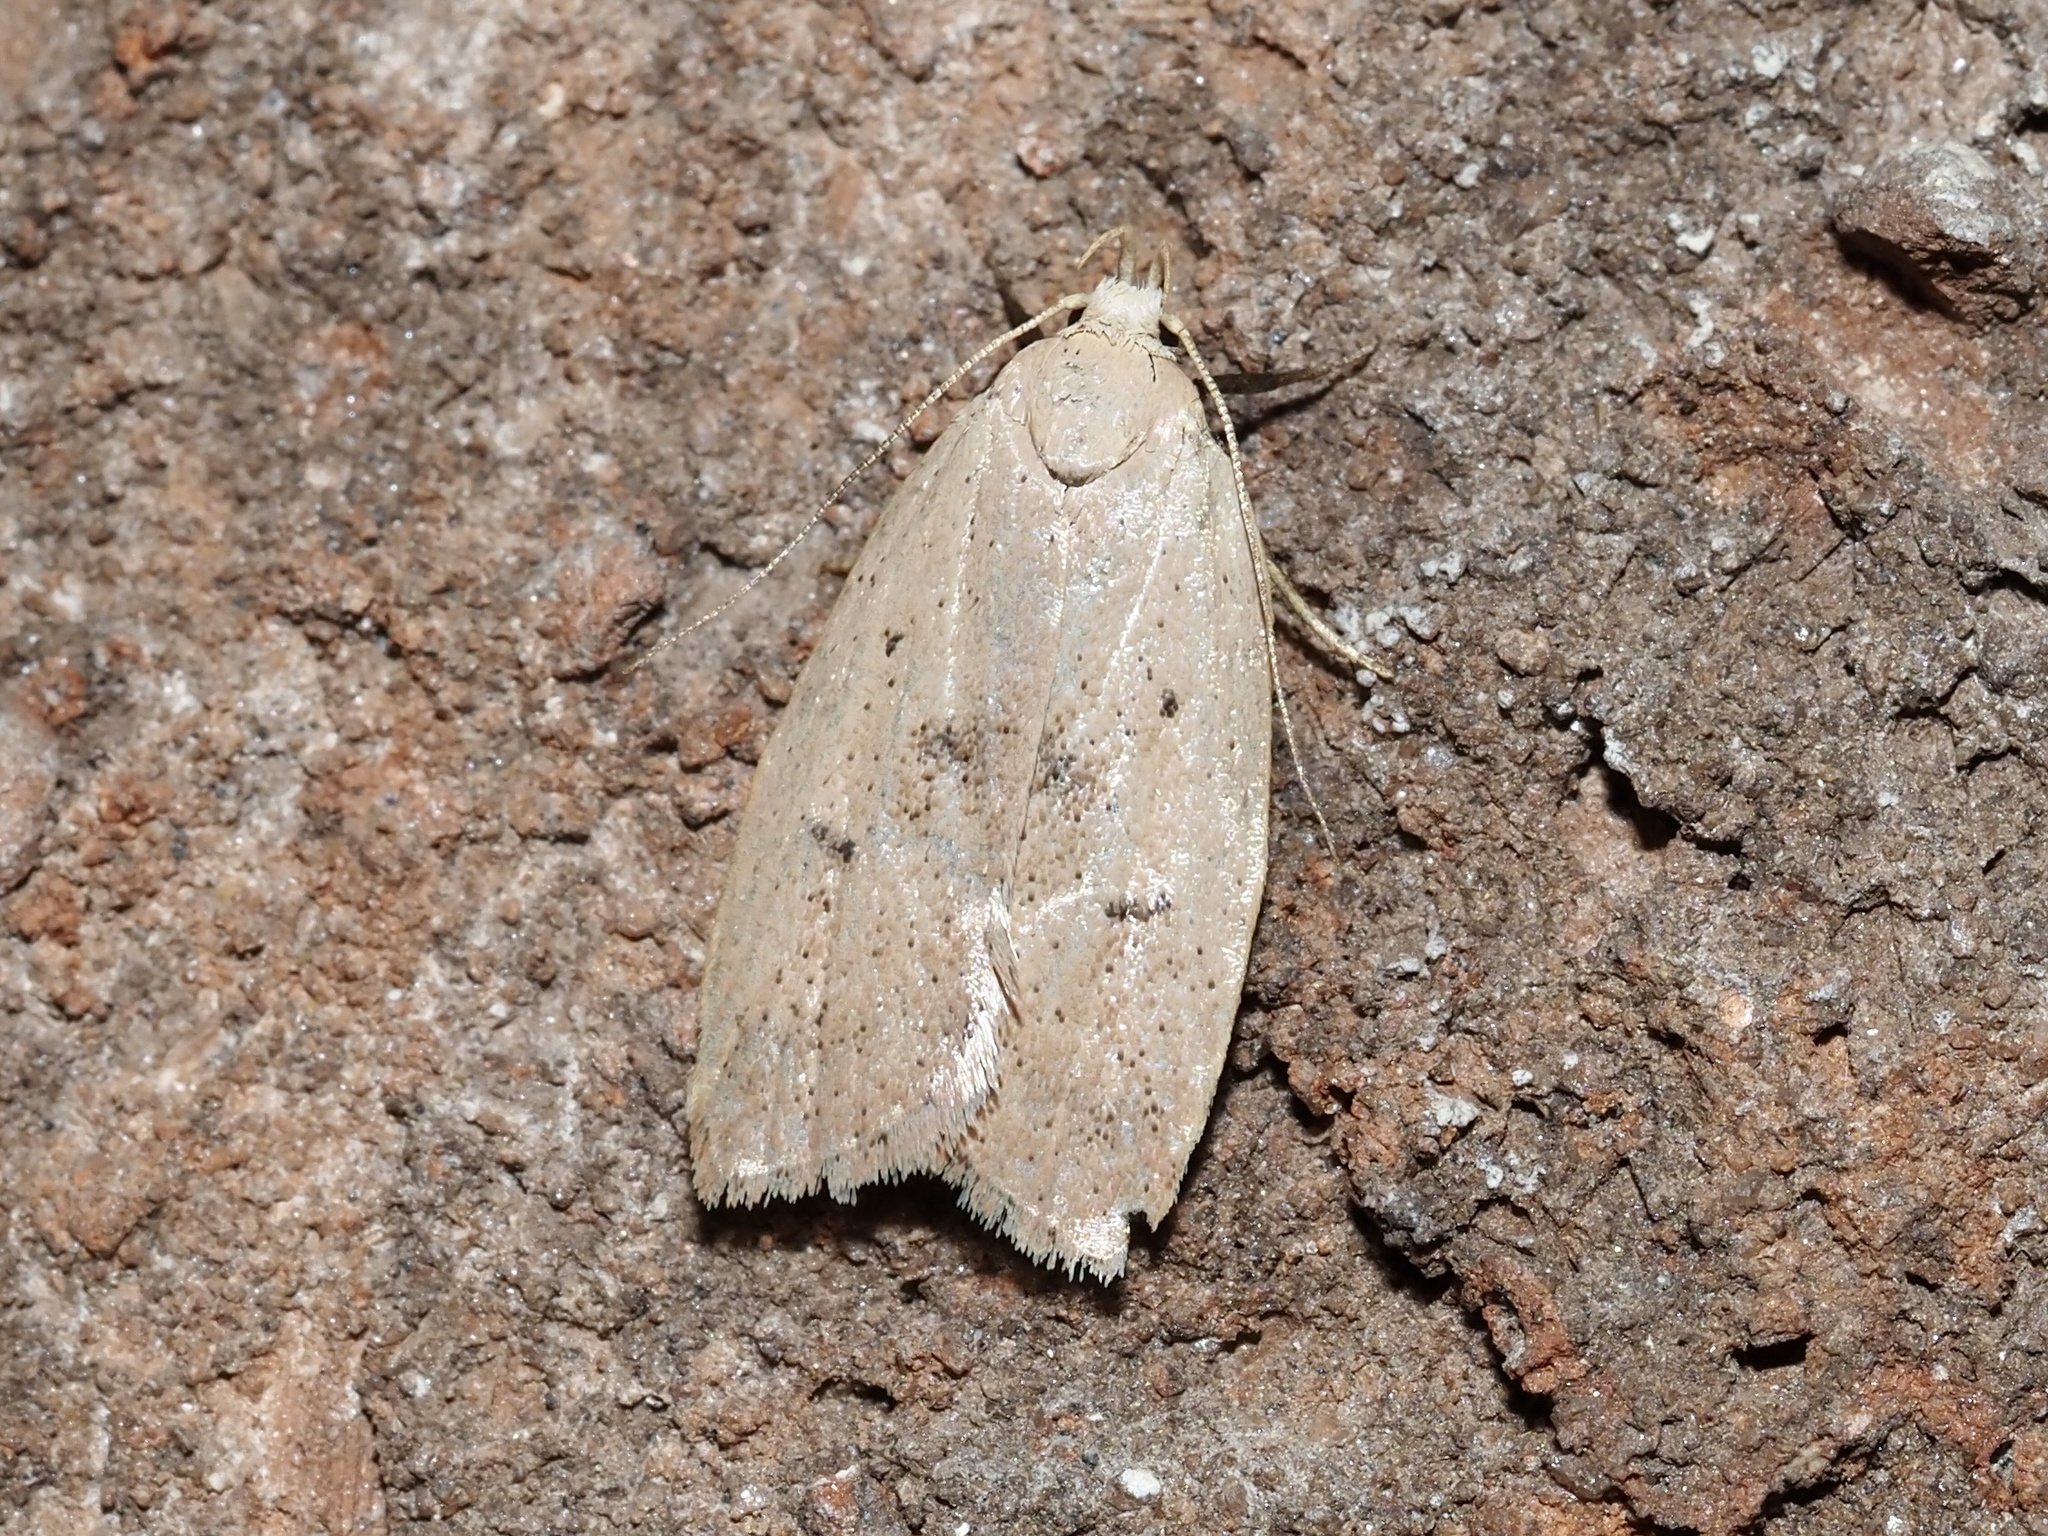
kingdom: Animalia
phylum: Arthropoda
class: Insecta
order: Lepidoptera
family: Peleopodidae
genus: Machimia
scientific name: Machimia tentoriferella
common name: Gold-striped leaftier moth
